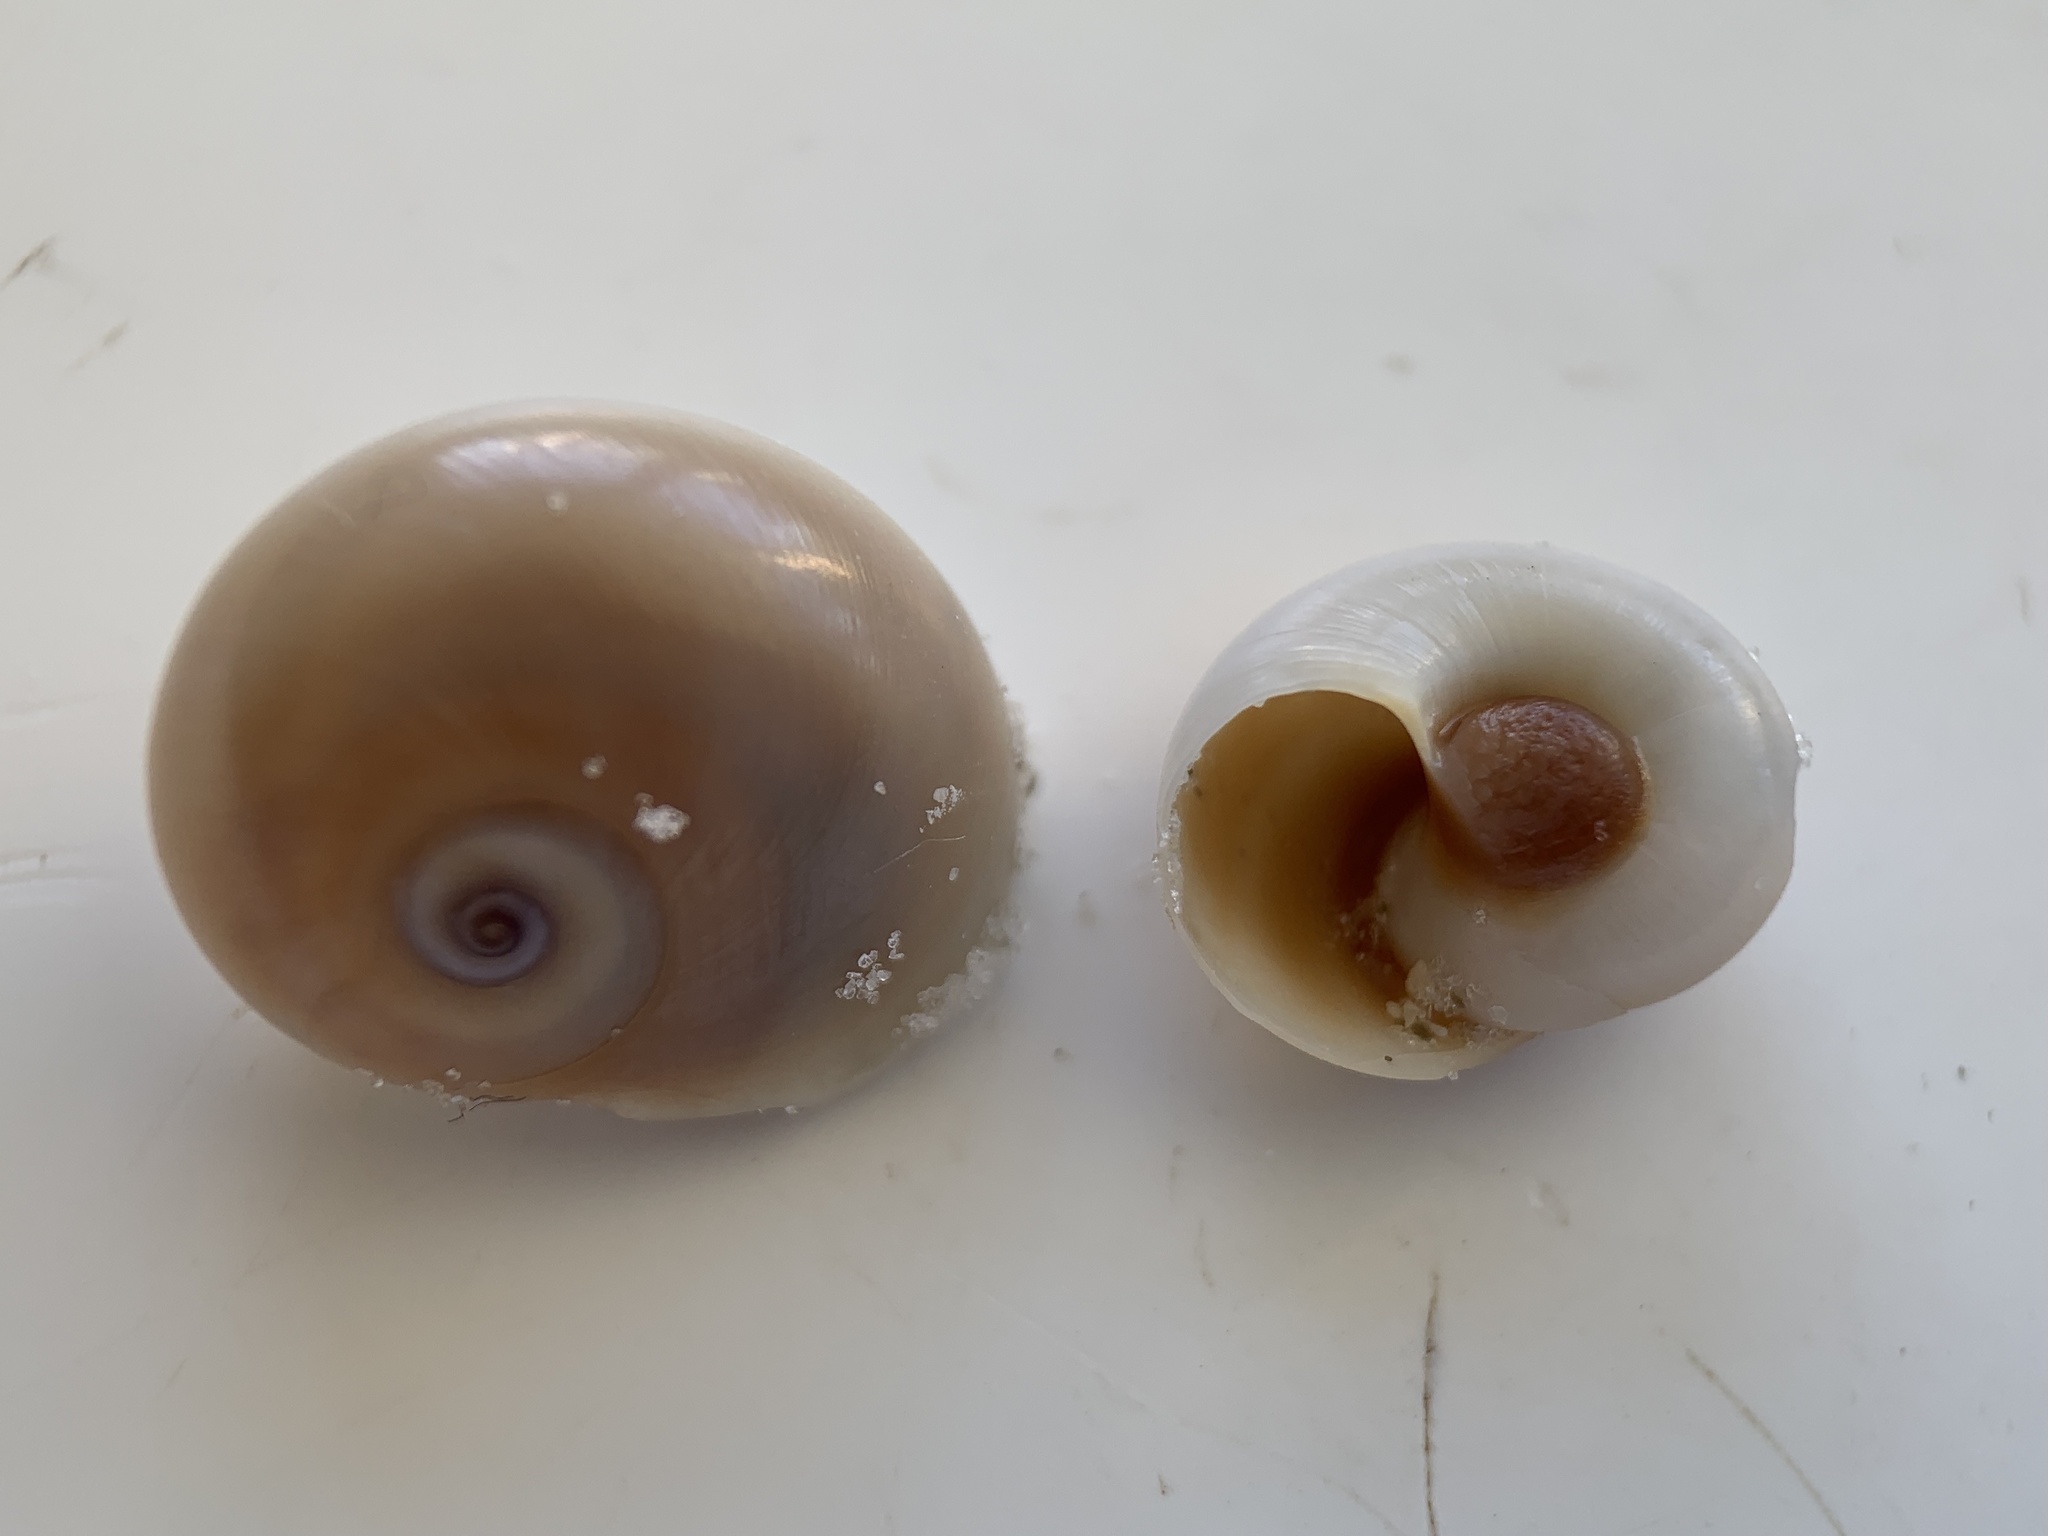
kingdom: Animalia
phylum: Mollusca
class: Gastropoda
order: Littorinimorpha
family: Naticidae
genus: Neverita
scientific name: Neverita duplicata
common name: Lobed moonsnail
